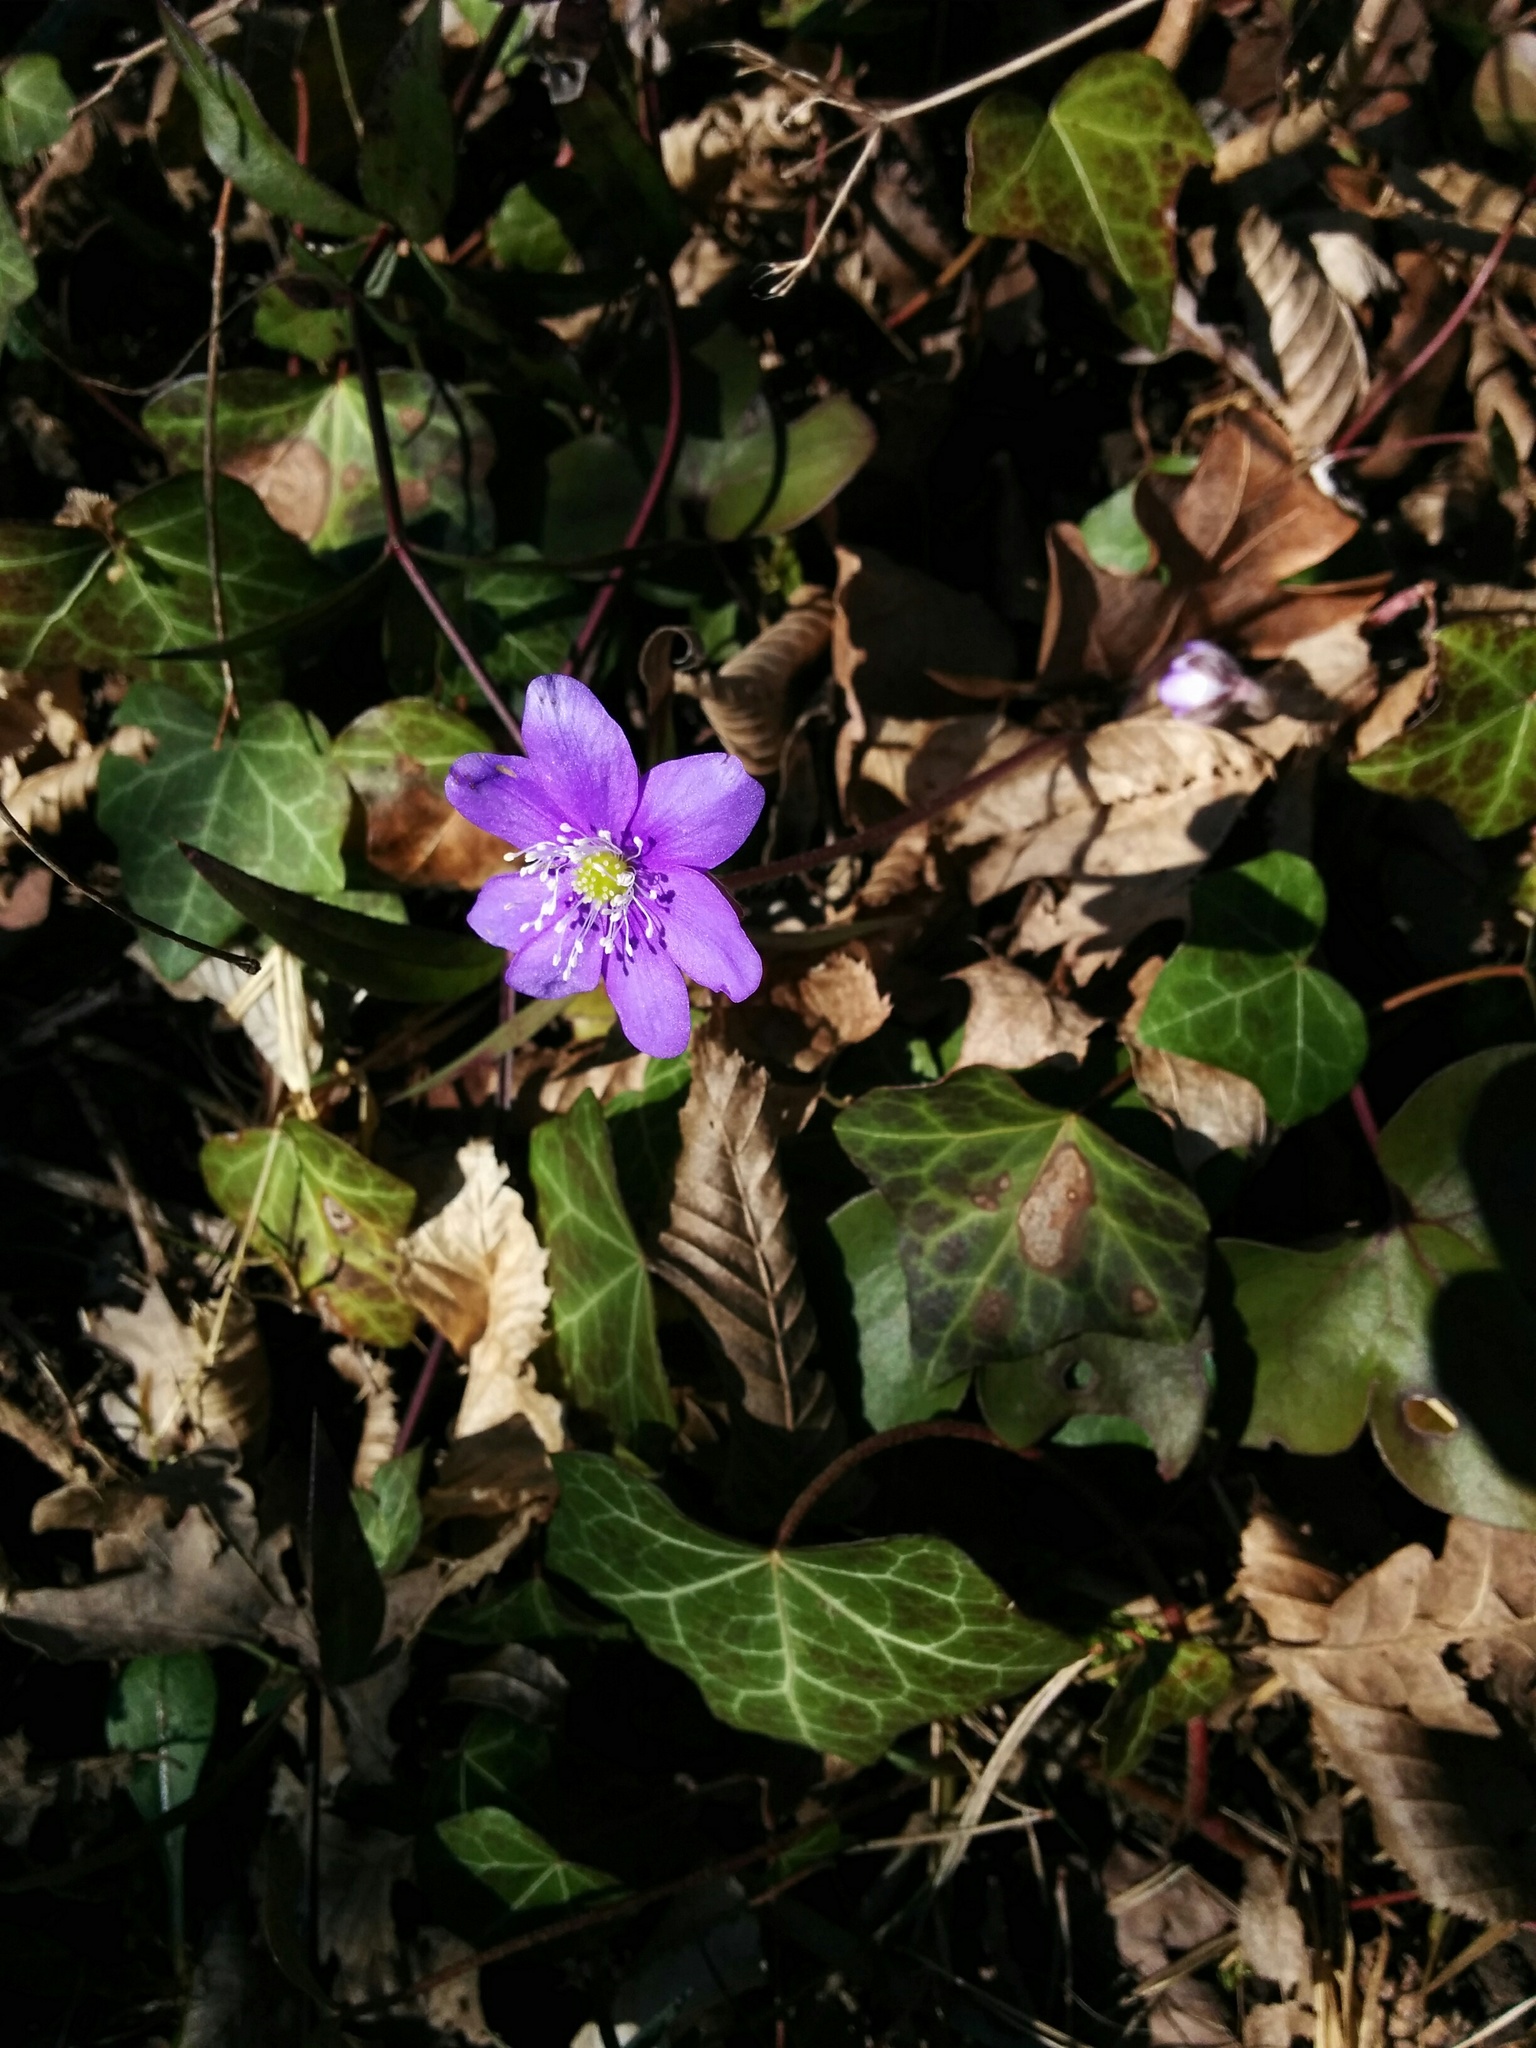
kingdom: Plantae
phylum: Tracheophyta
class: Magnoliopsida
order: Ranunculales
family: Ranunculaceae
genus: Hepatica
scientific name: Hepatica nobilis
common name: Liverleaf
